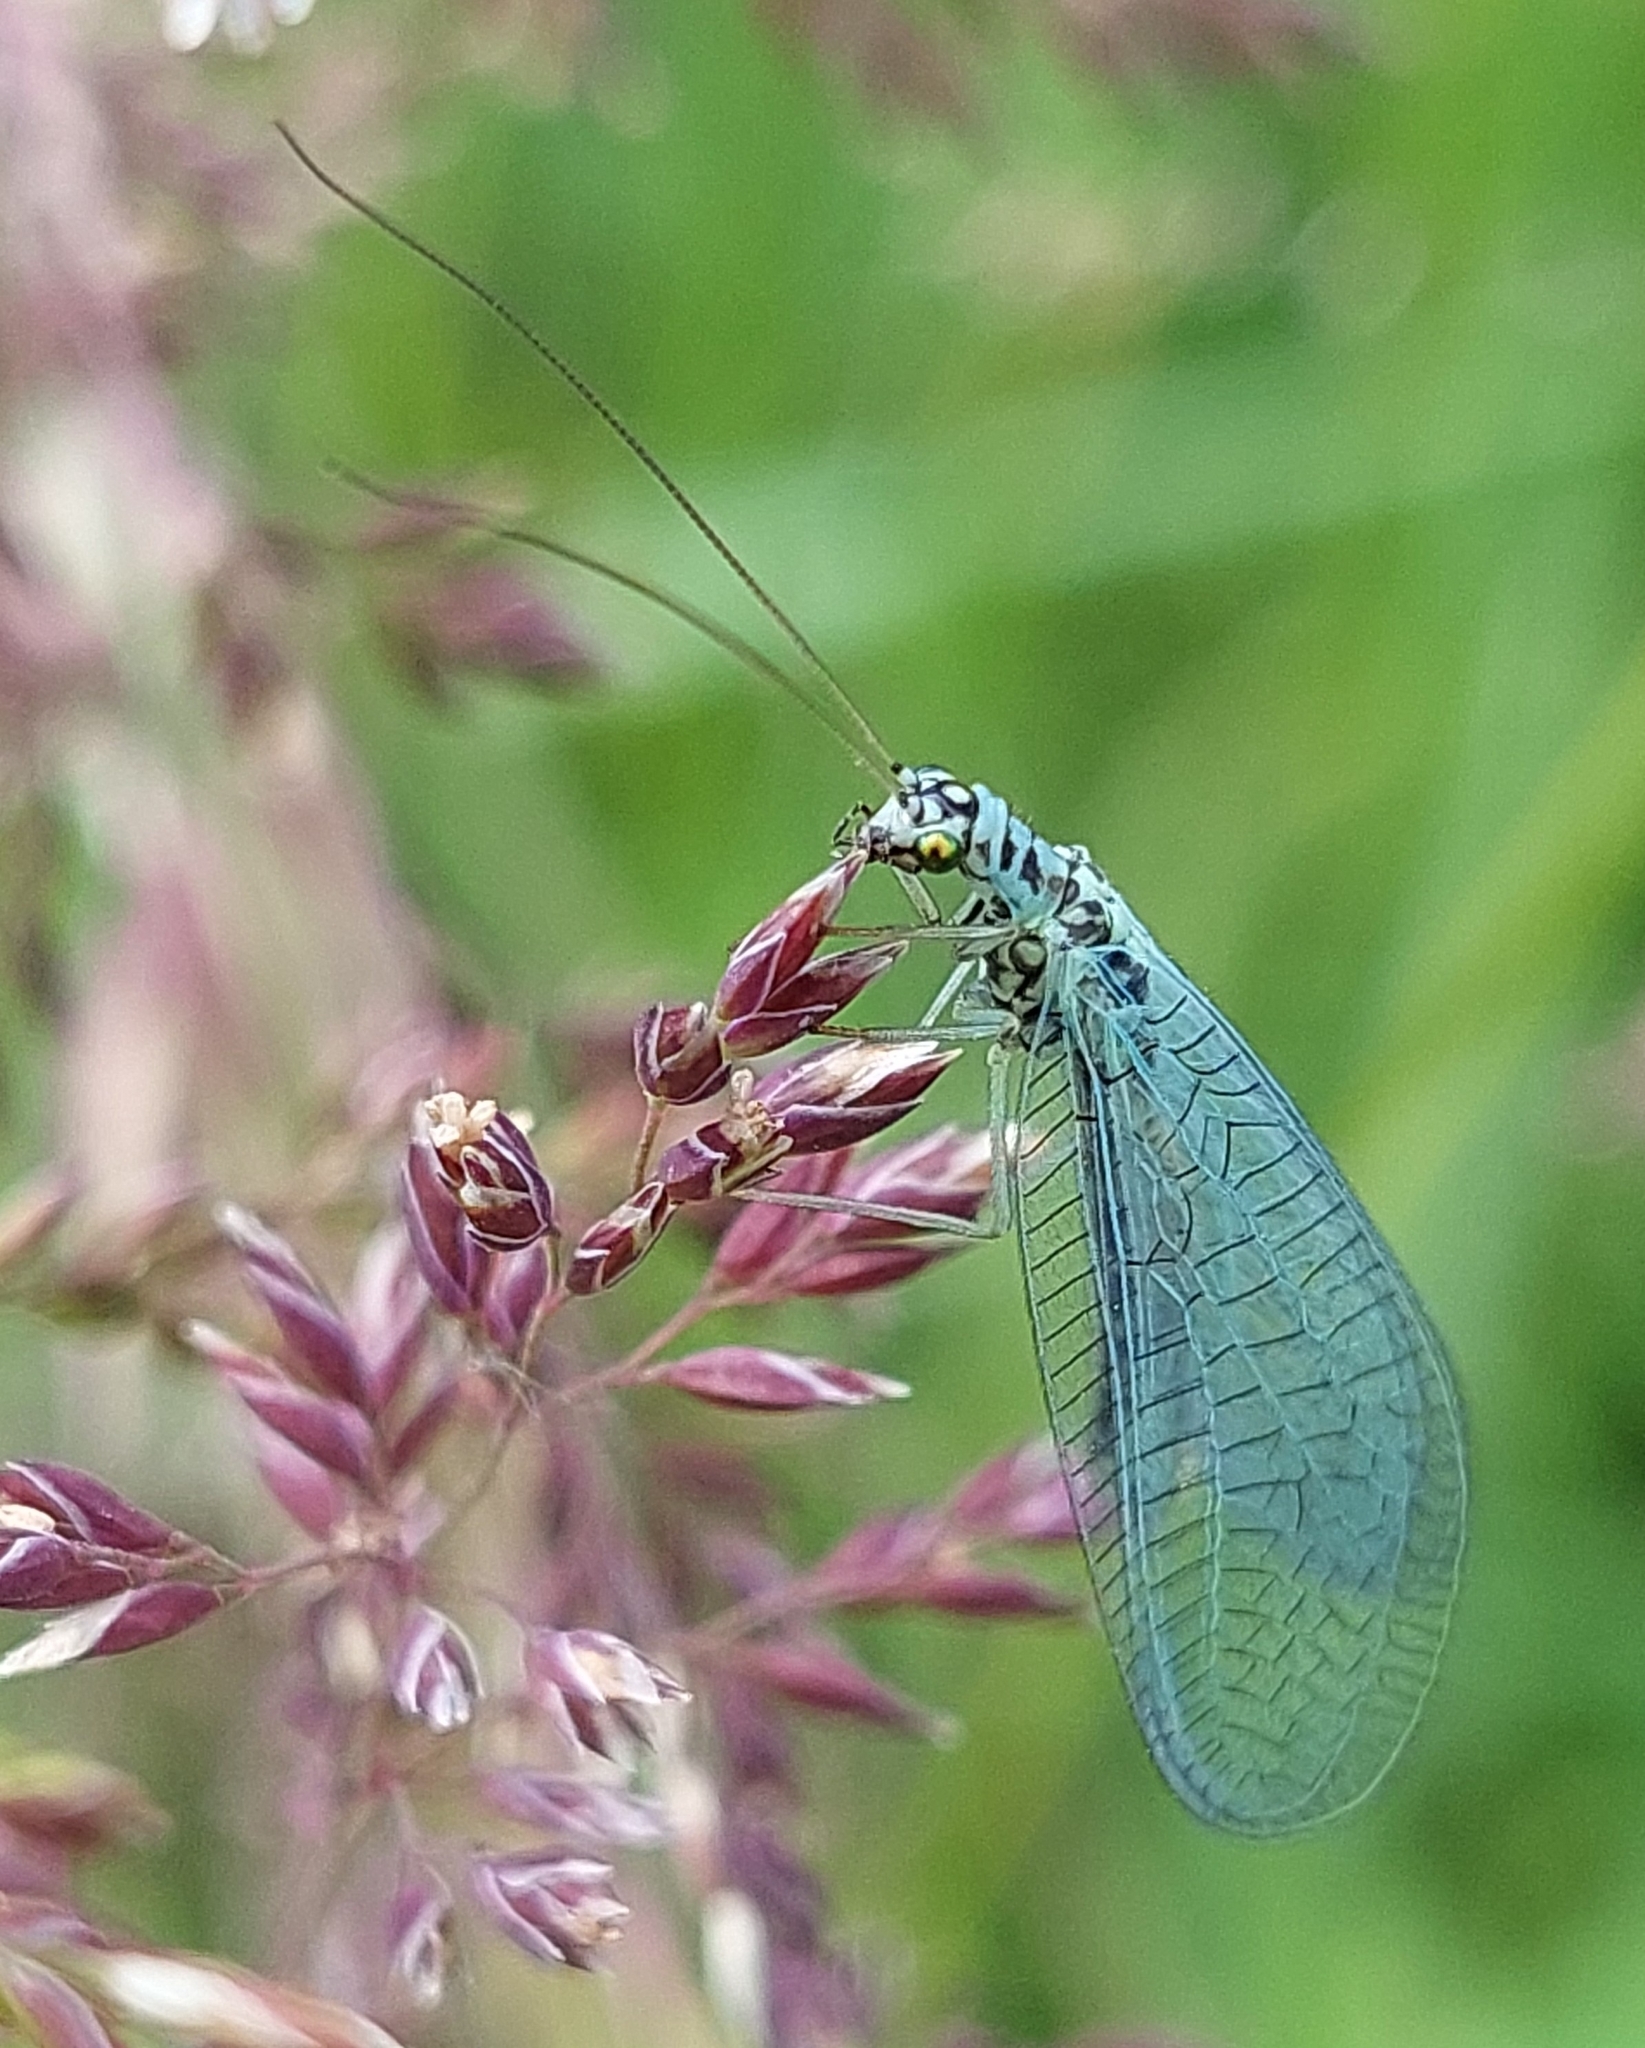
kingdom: Animalia
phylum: Arthropoda
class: Insecta
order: Neuroptera
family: Chrysopidae
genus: Chrysopa
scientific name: Chrysopa perla
